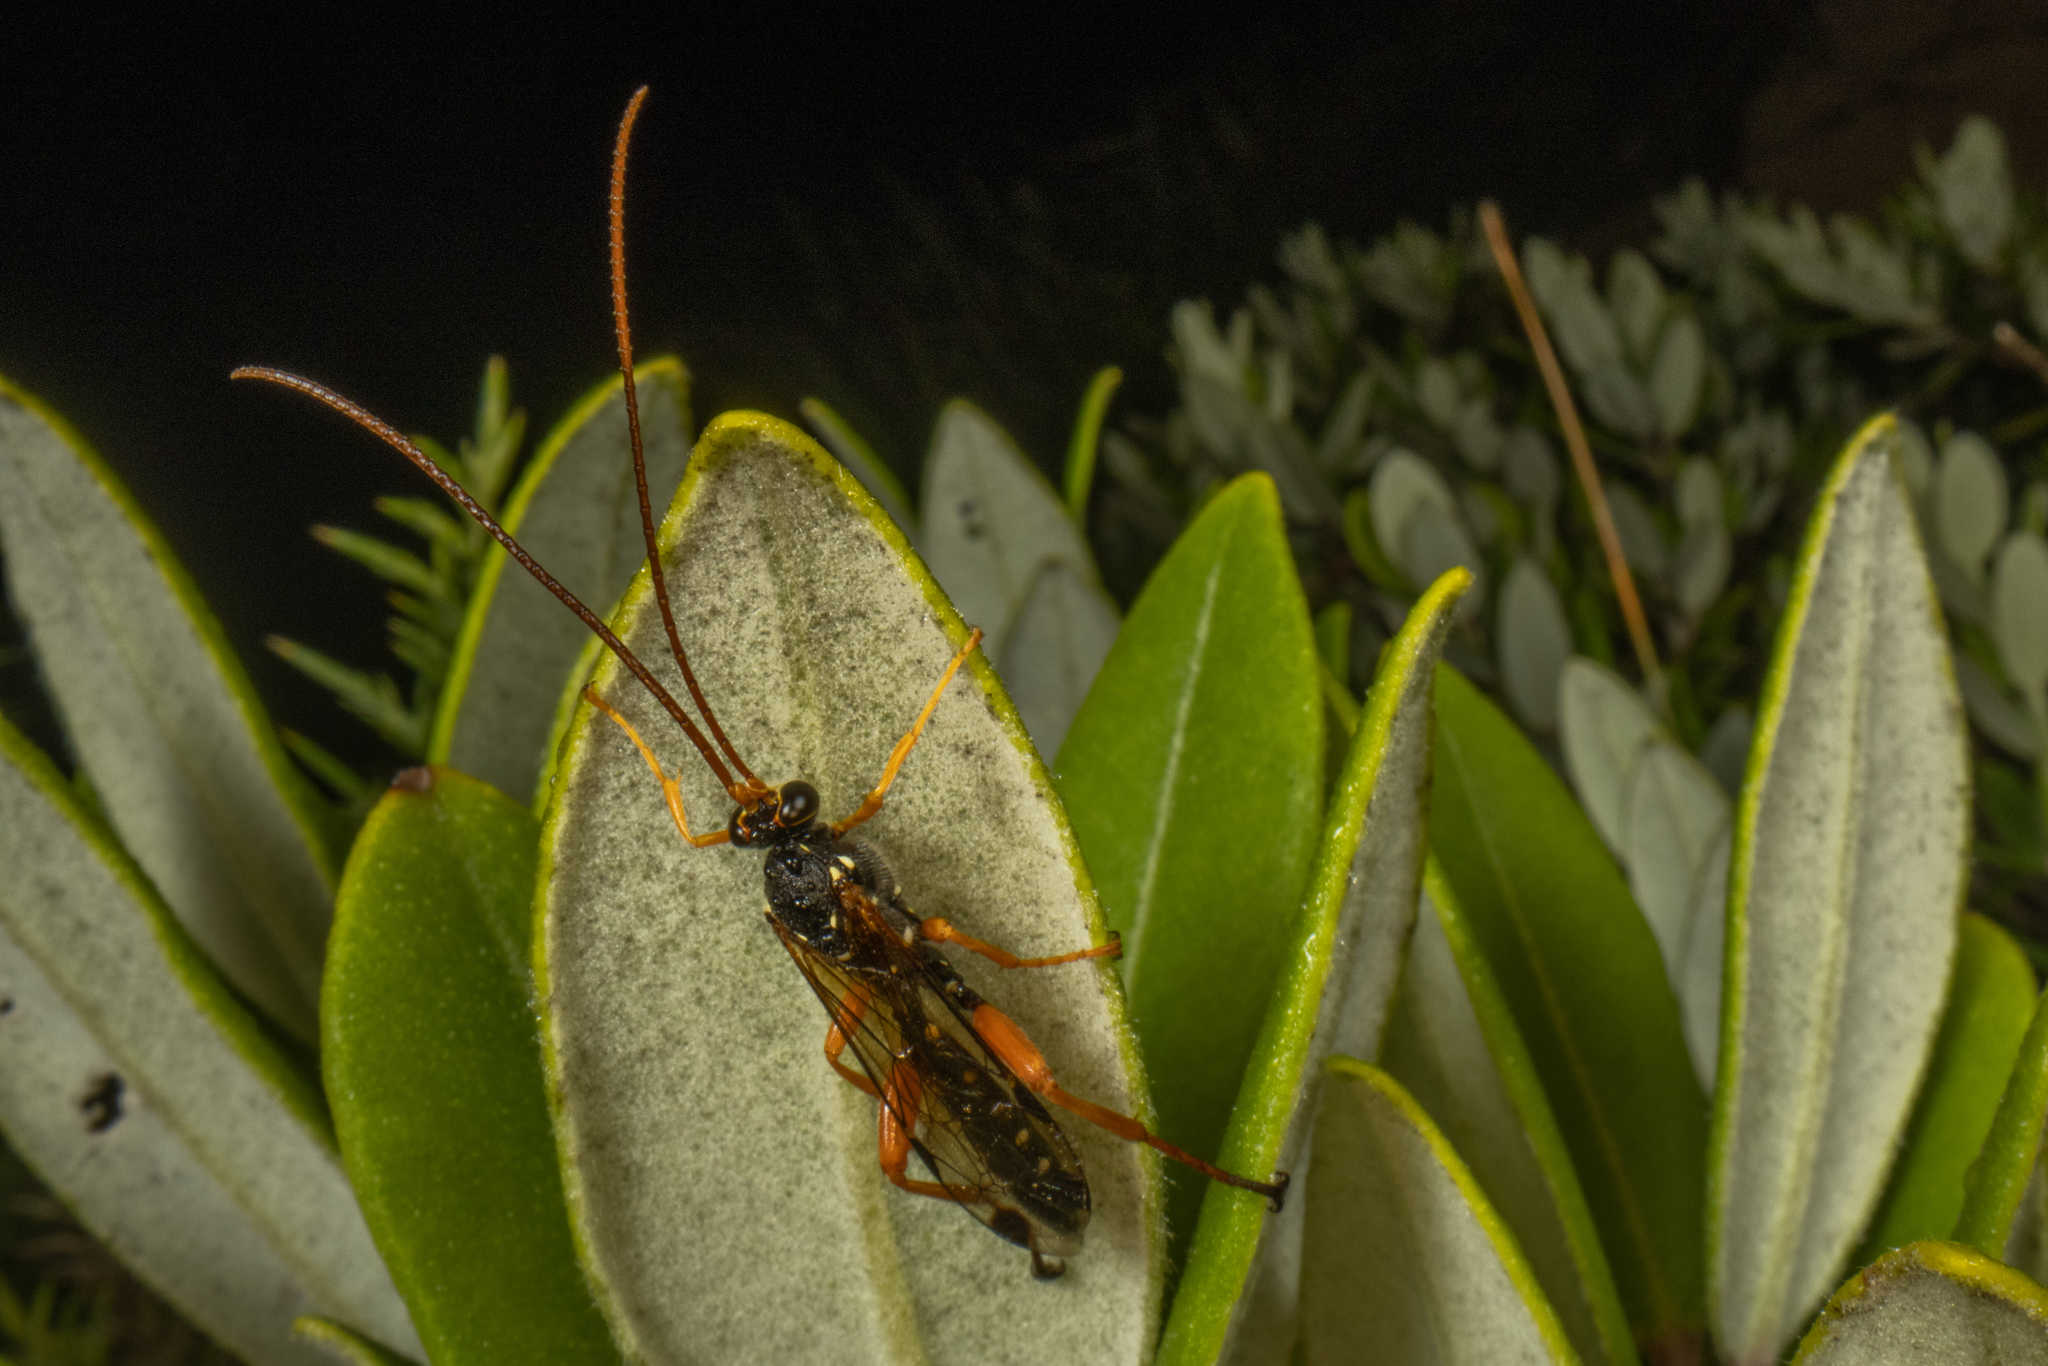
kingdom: Animalia
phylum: Arthropoda
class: Insecta
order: Hymenoptera
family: Ichneumonidae
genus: Echthromorpha
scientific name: Echthromorpha intricatoria
